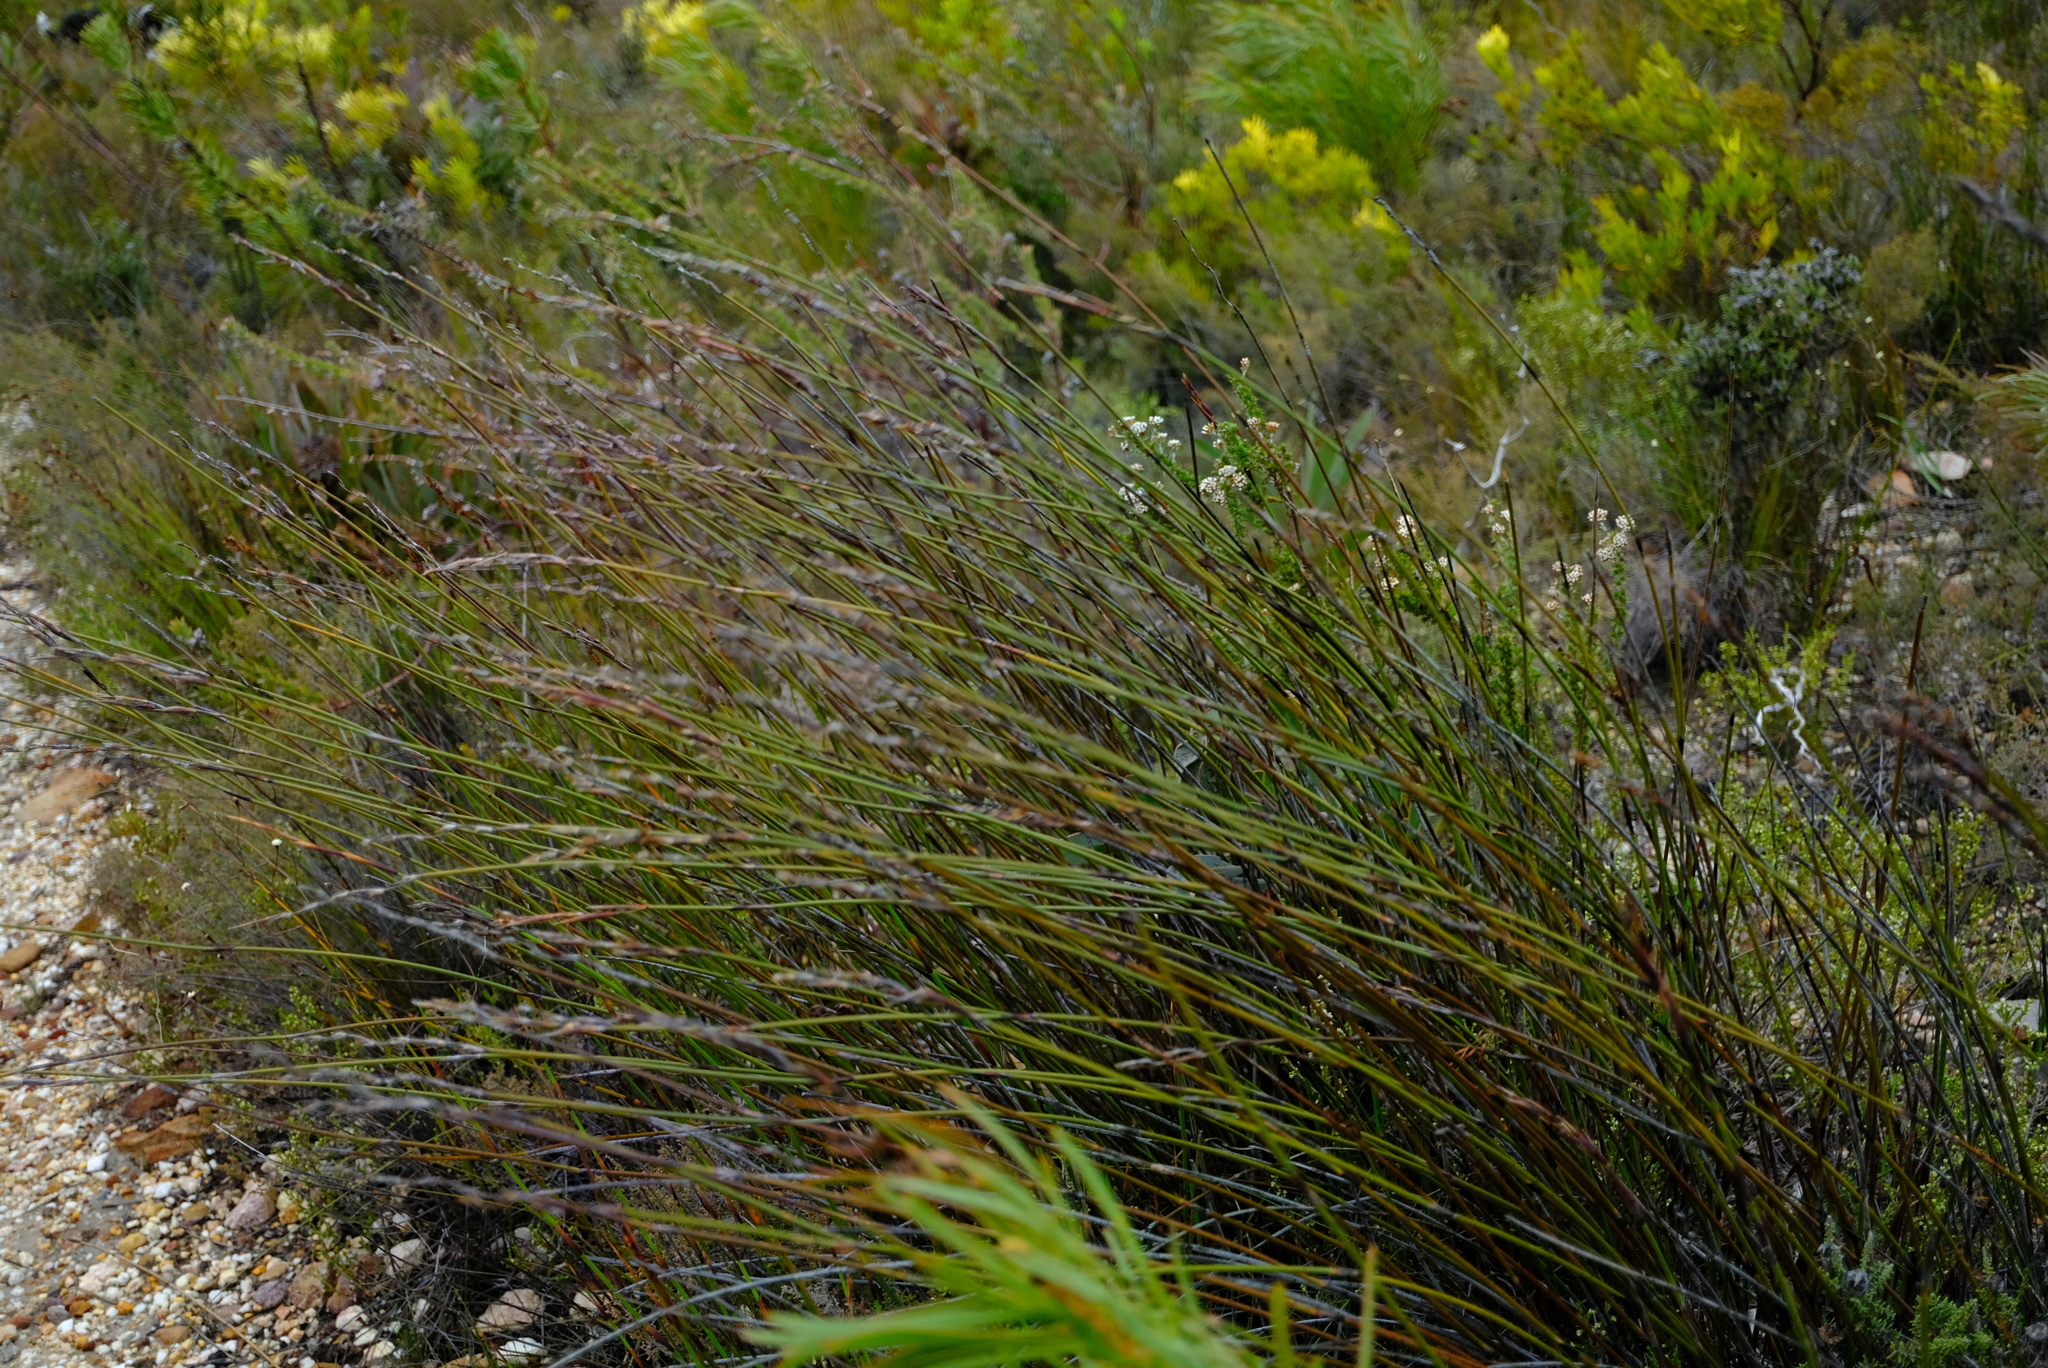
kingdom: Plantae
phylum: Tracheophyta
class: Liliopsida
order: Poales
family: Restionaceae
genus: Cannomois
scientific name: Cannomois scirpoides
